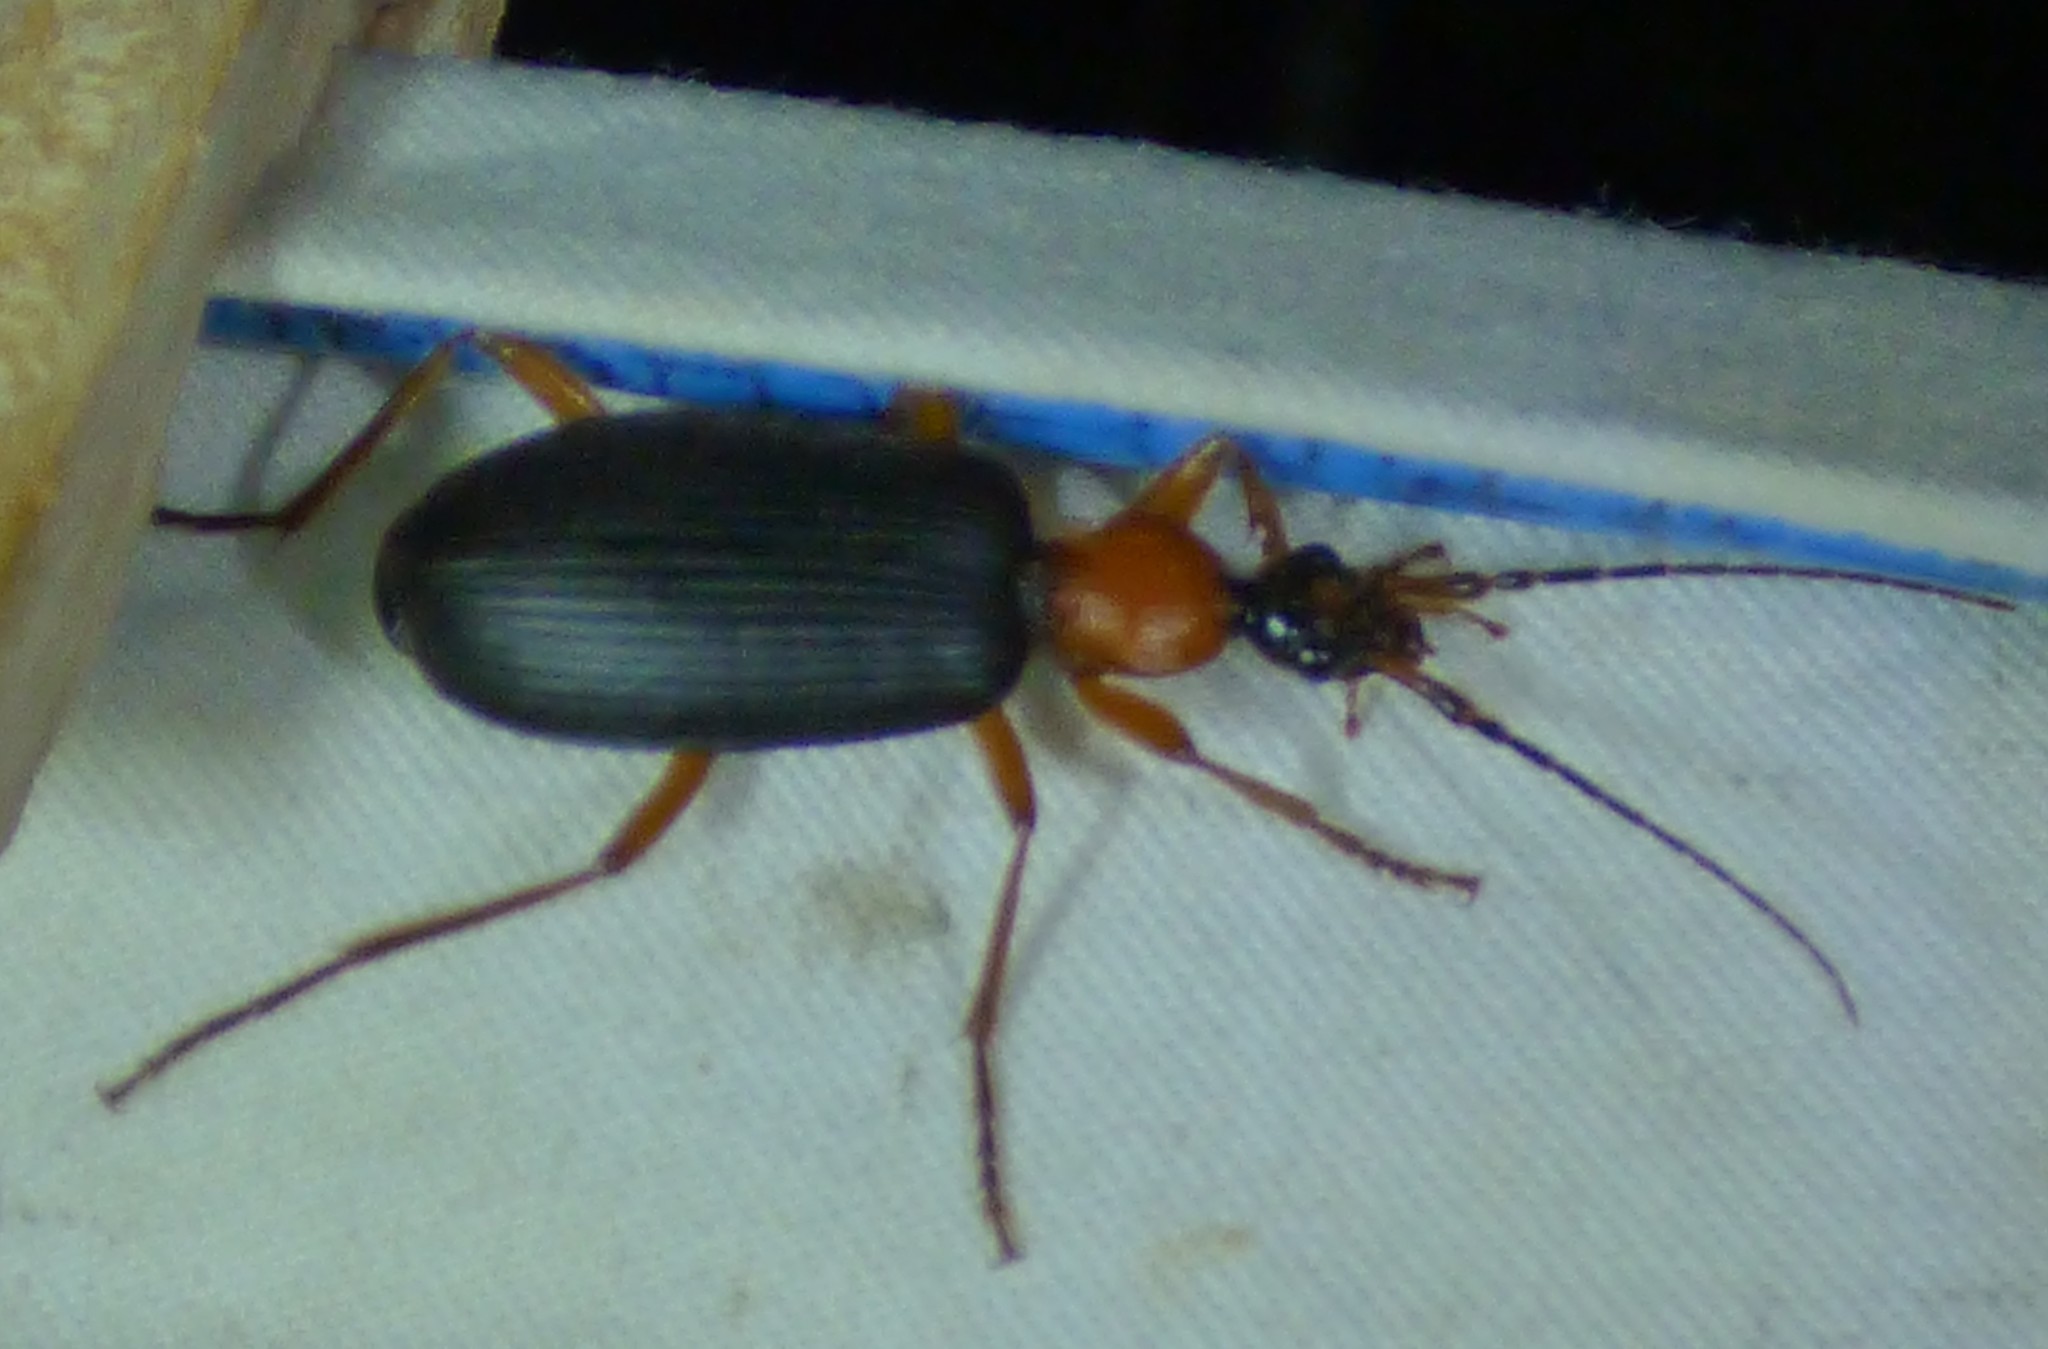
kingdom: Animalia
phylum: Arthropoda
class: Insecta
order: Coleoptera
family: Carabidae
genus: Galerita
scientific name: Galerita bicolor
